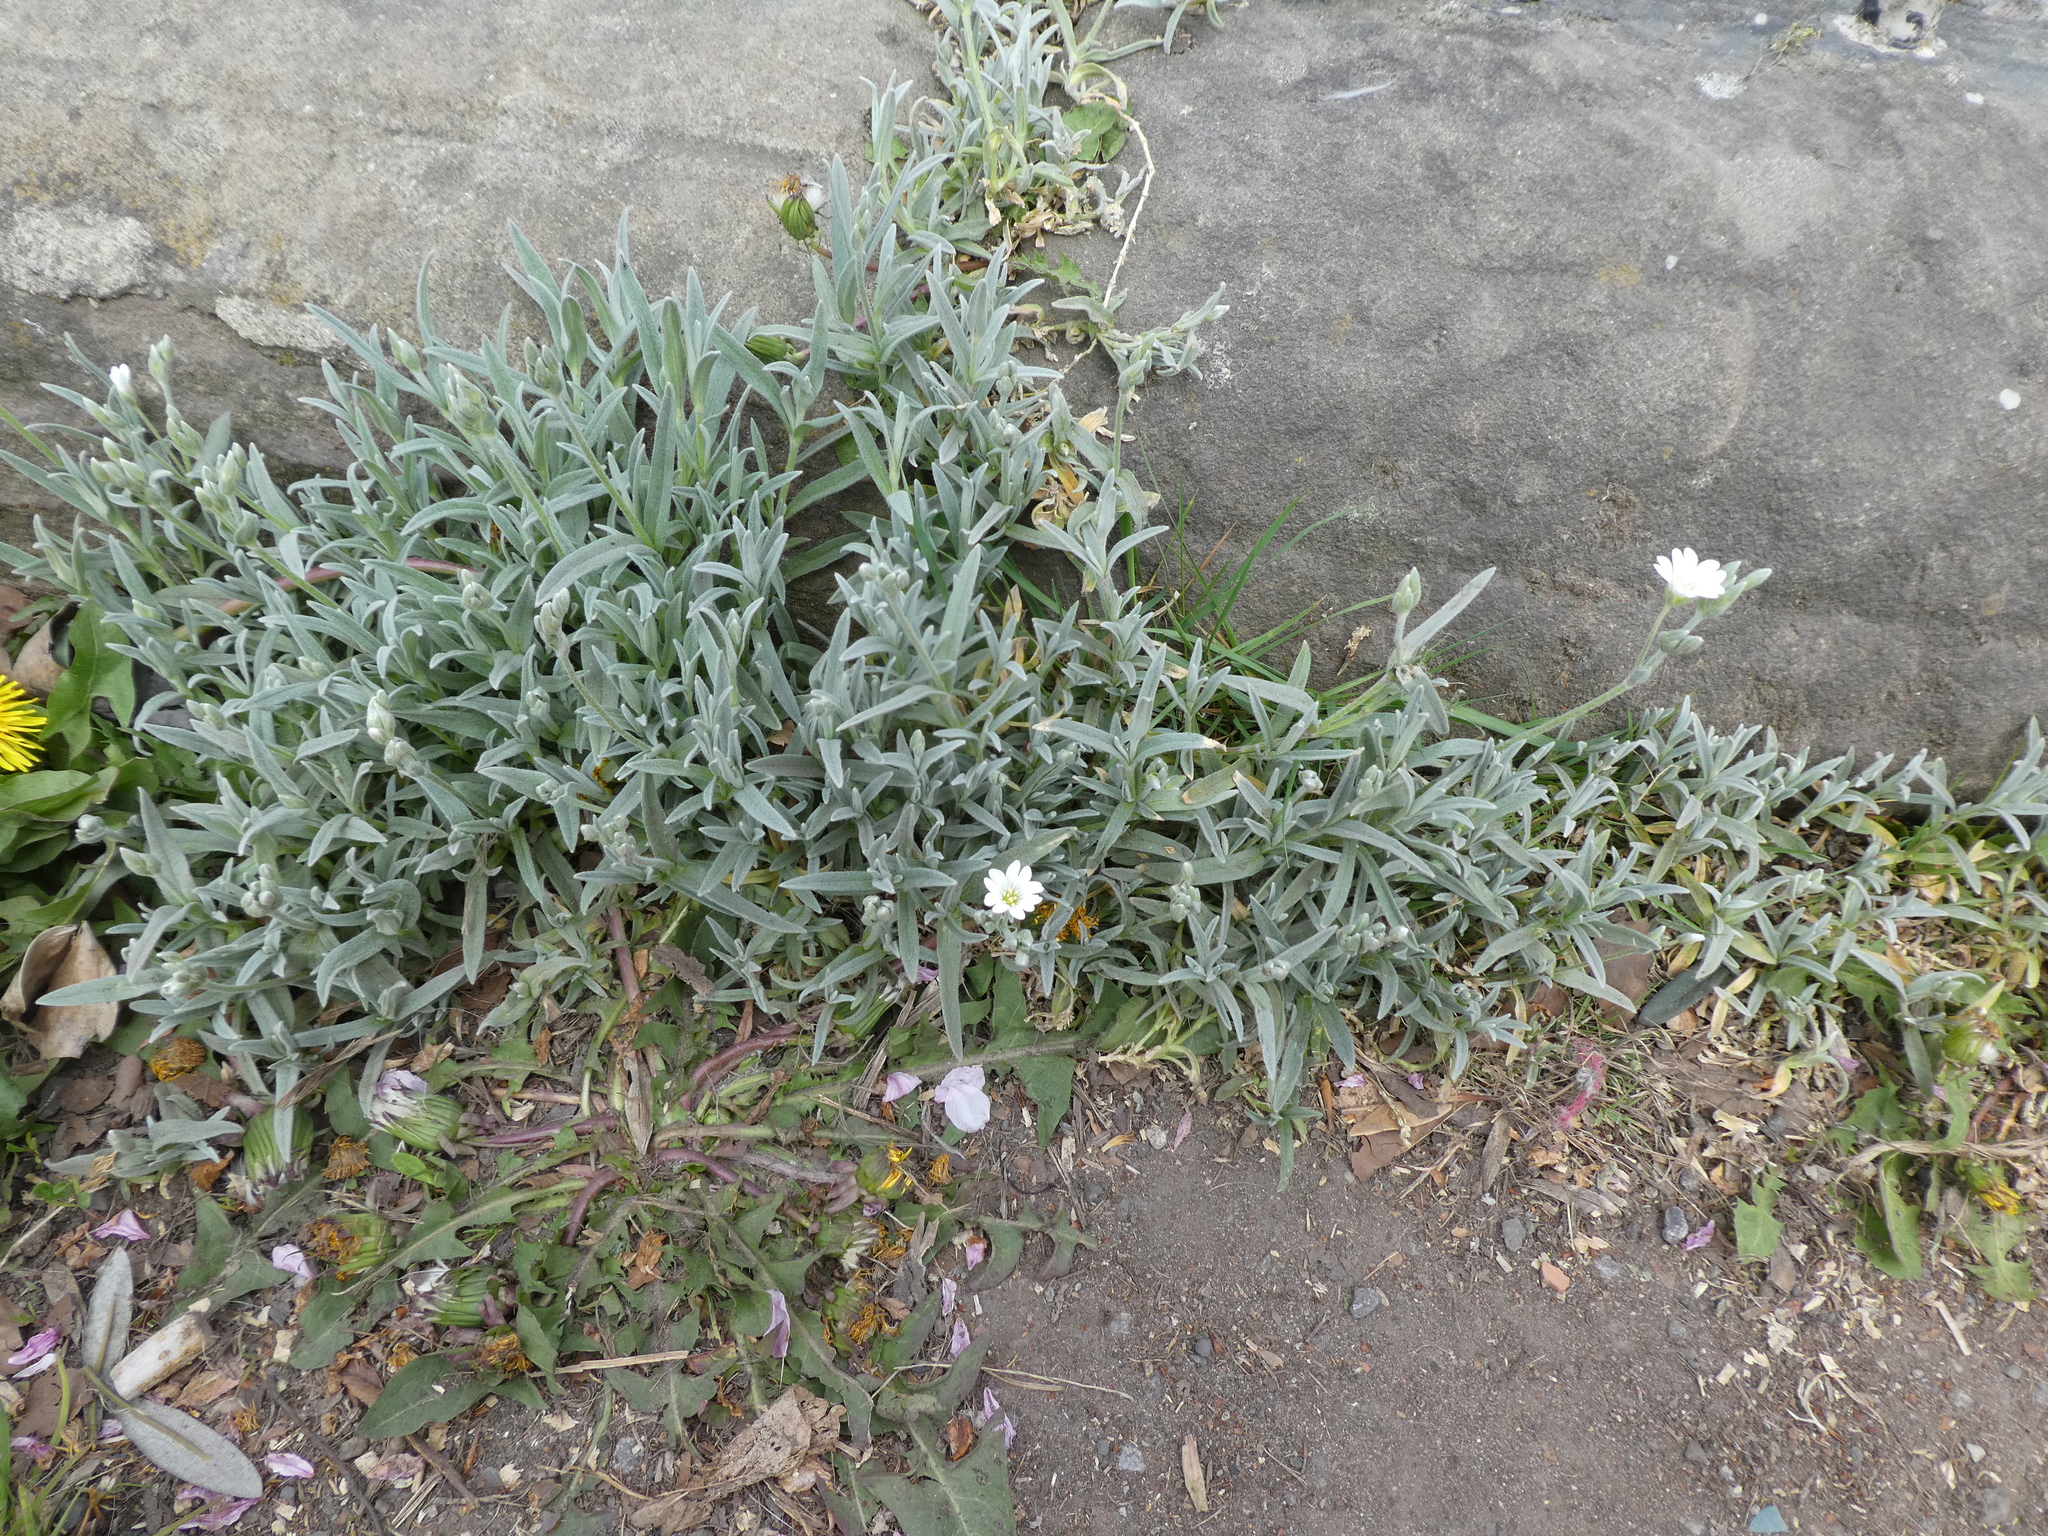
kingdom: Plantae
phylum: Tracheophyta
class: Magnoliopsida
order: Caryophyllales
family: Caryophyllaceae
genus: Cerastium
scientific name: Cerastium tomentosum
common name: Snow-in-summer
